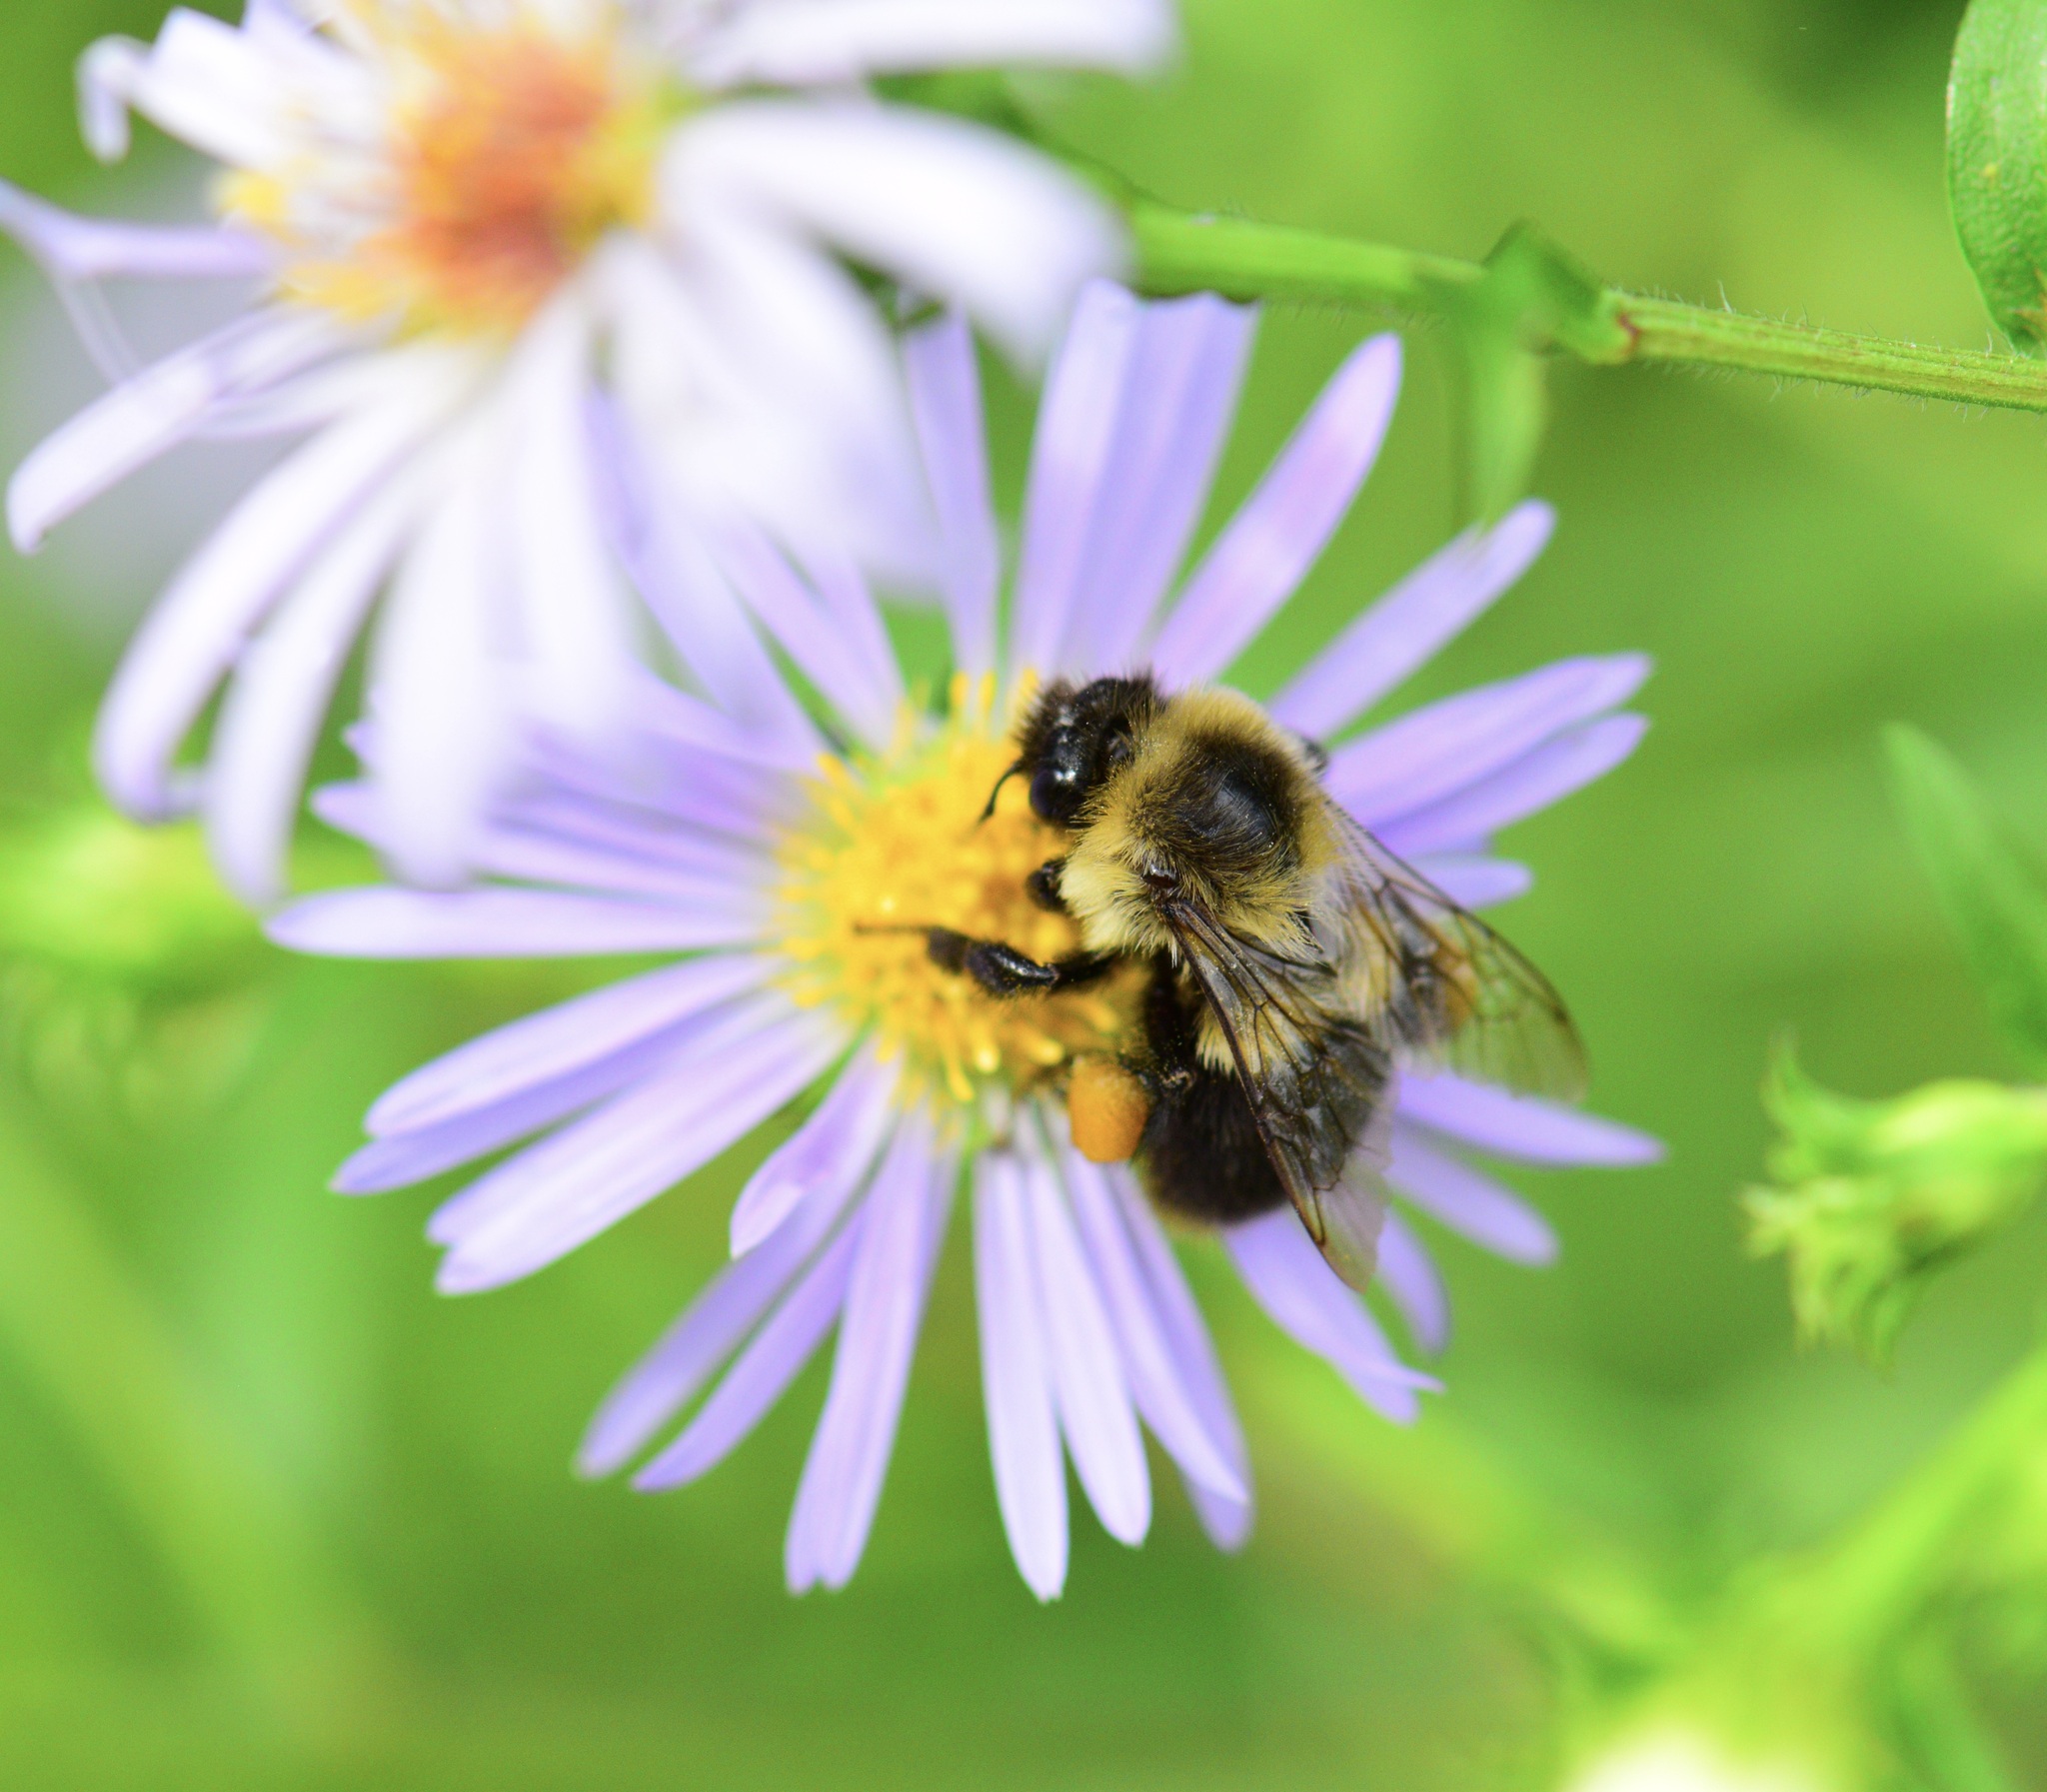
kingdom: Animalia
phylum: Arthropoda
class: Insecta
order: Hymenoptera
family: Apidae
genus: Bombus
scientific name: Bombus impatiens
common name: Common eastern bumble bee
